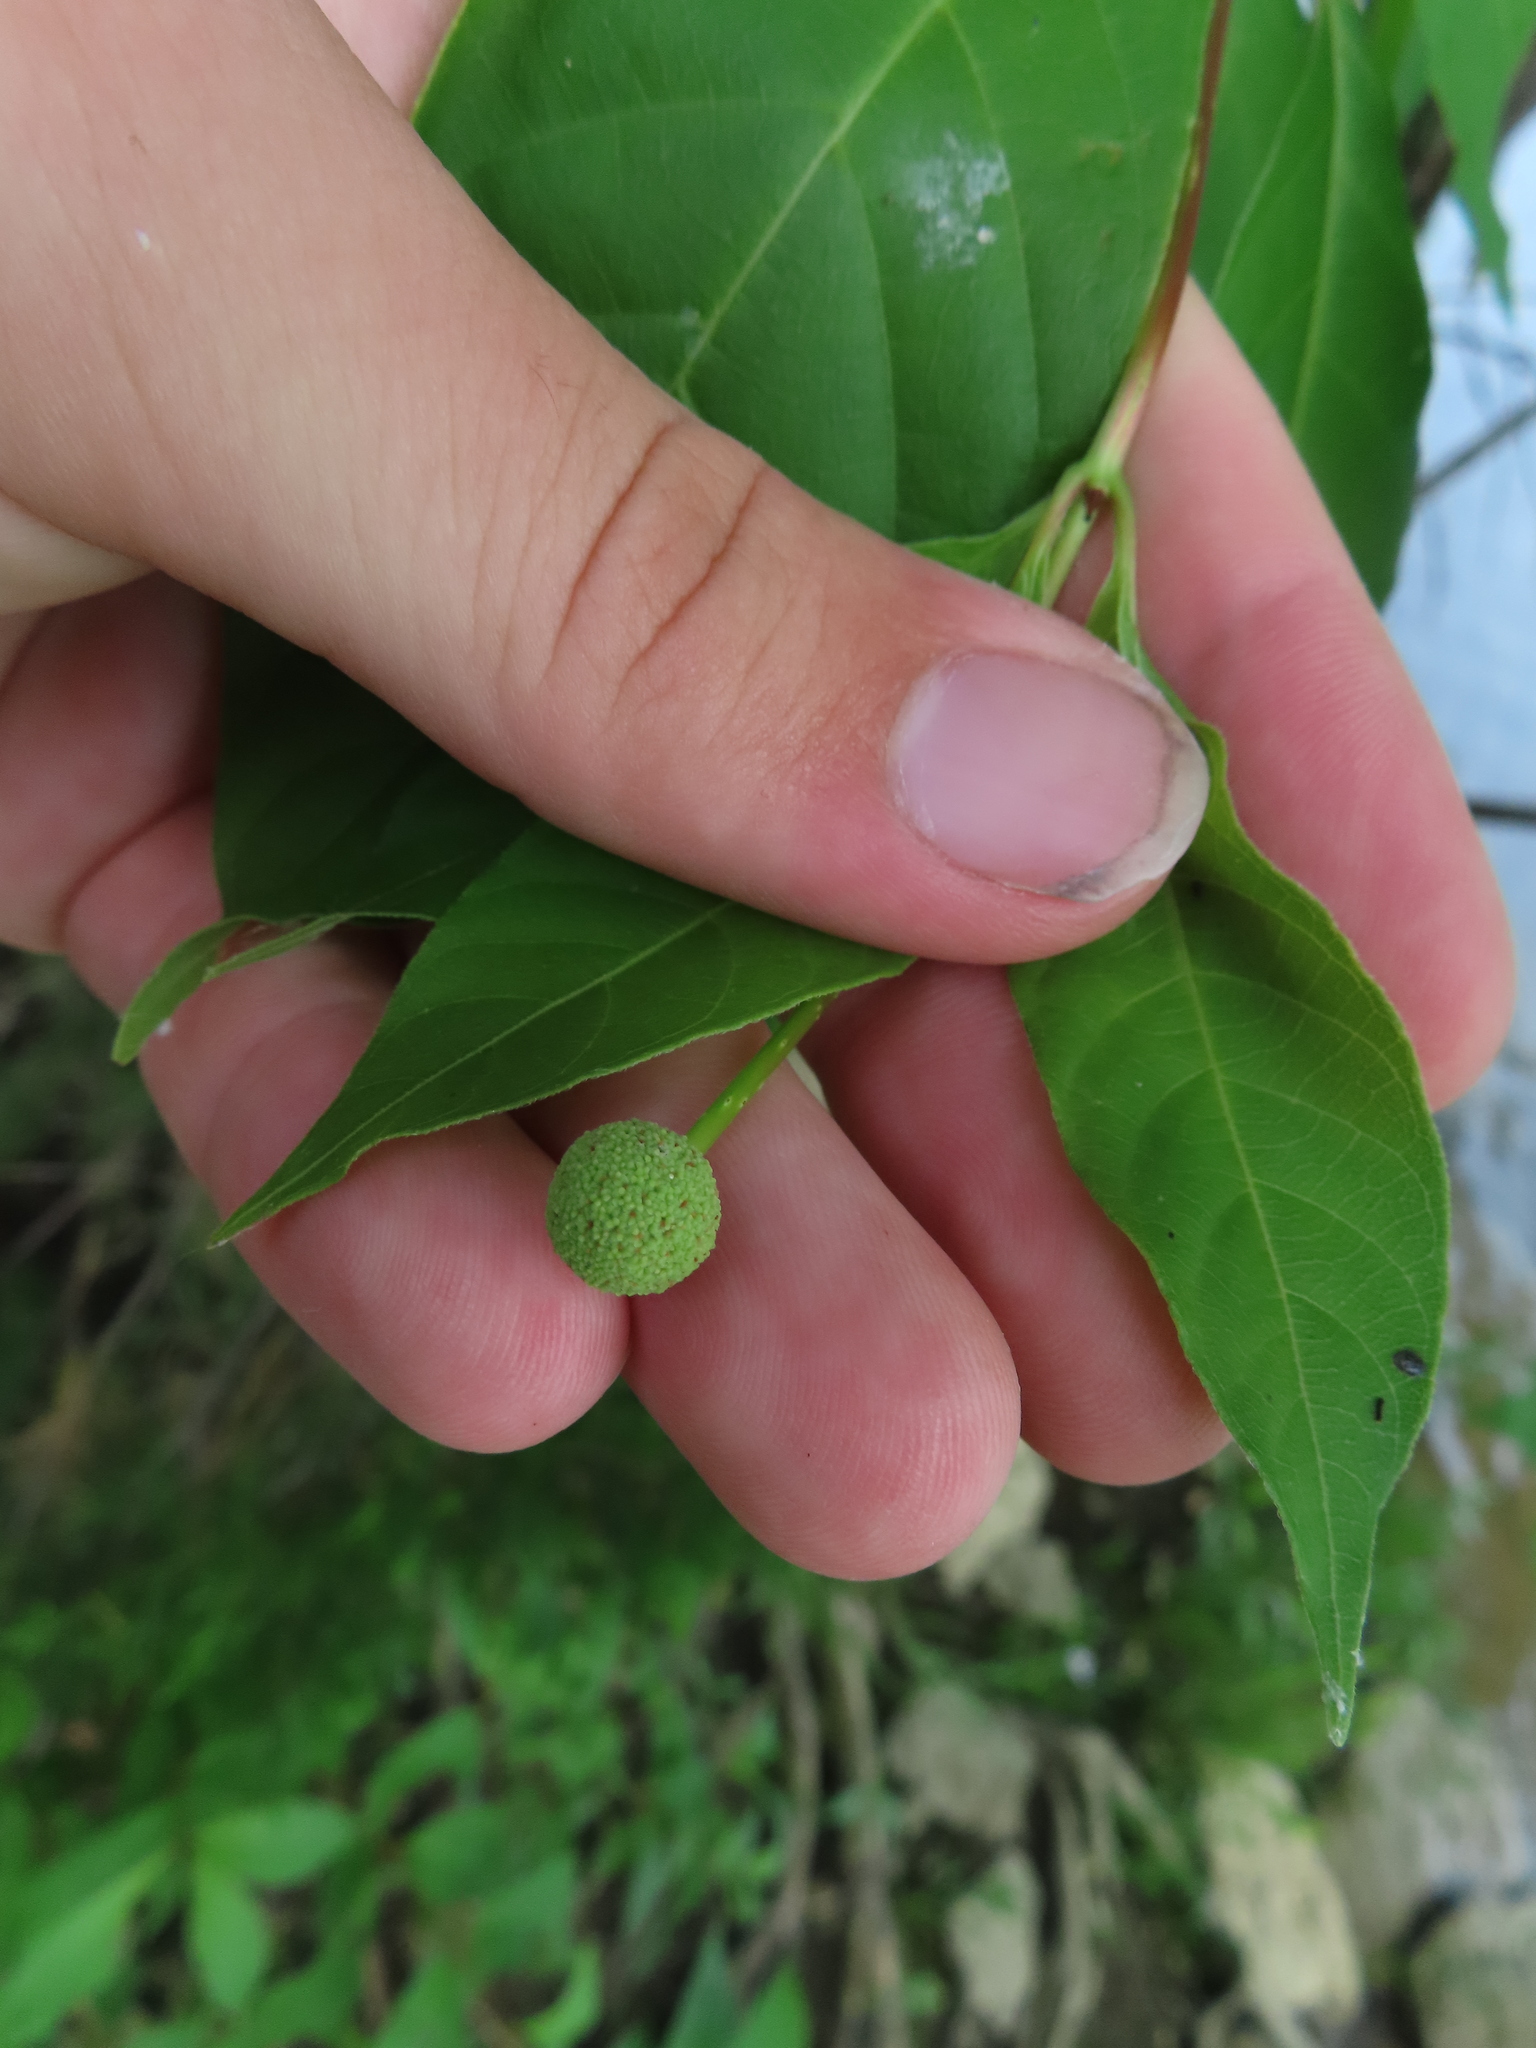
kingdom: Plantae
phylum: Tracheophyta
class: Magnoliopsida
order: Gentianales
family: Rubiaceae
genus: Cephalanthus
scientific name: Cephalanthus occidentalis
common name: Button-willow
